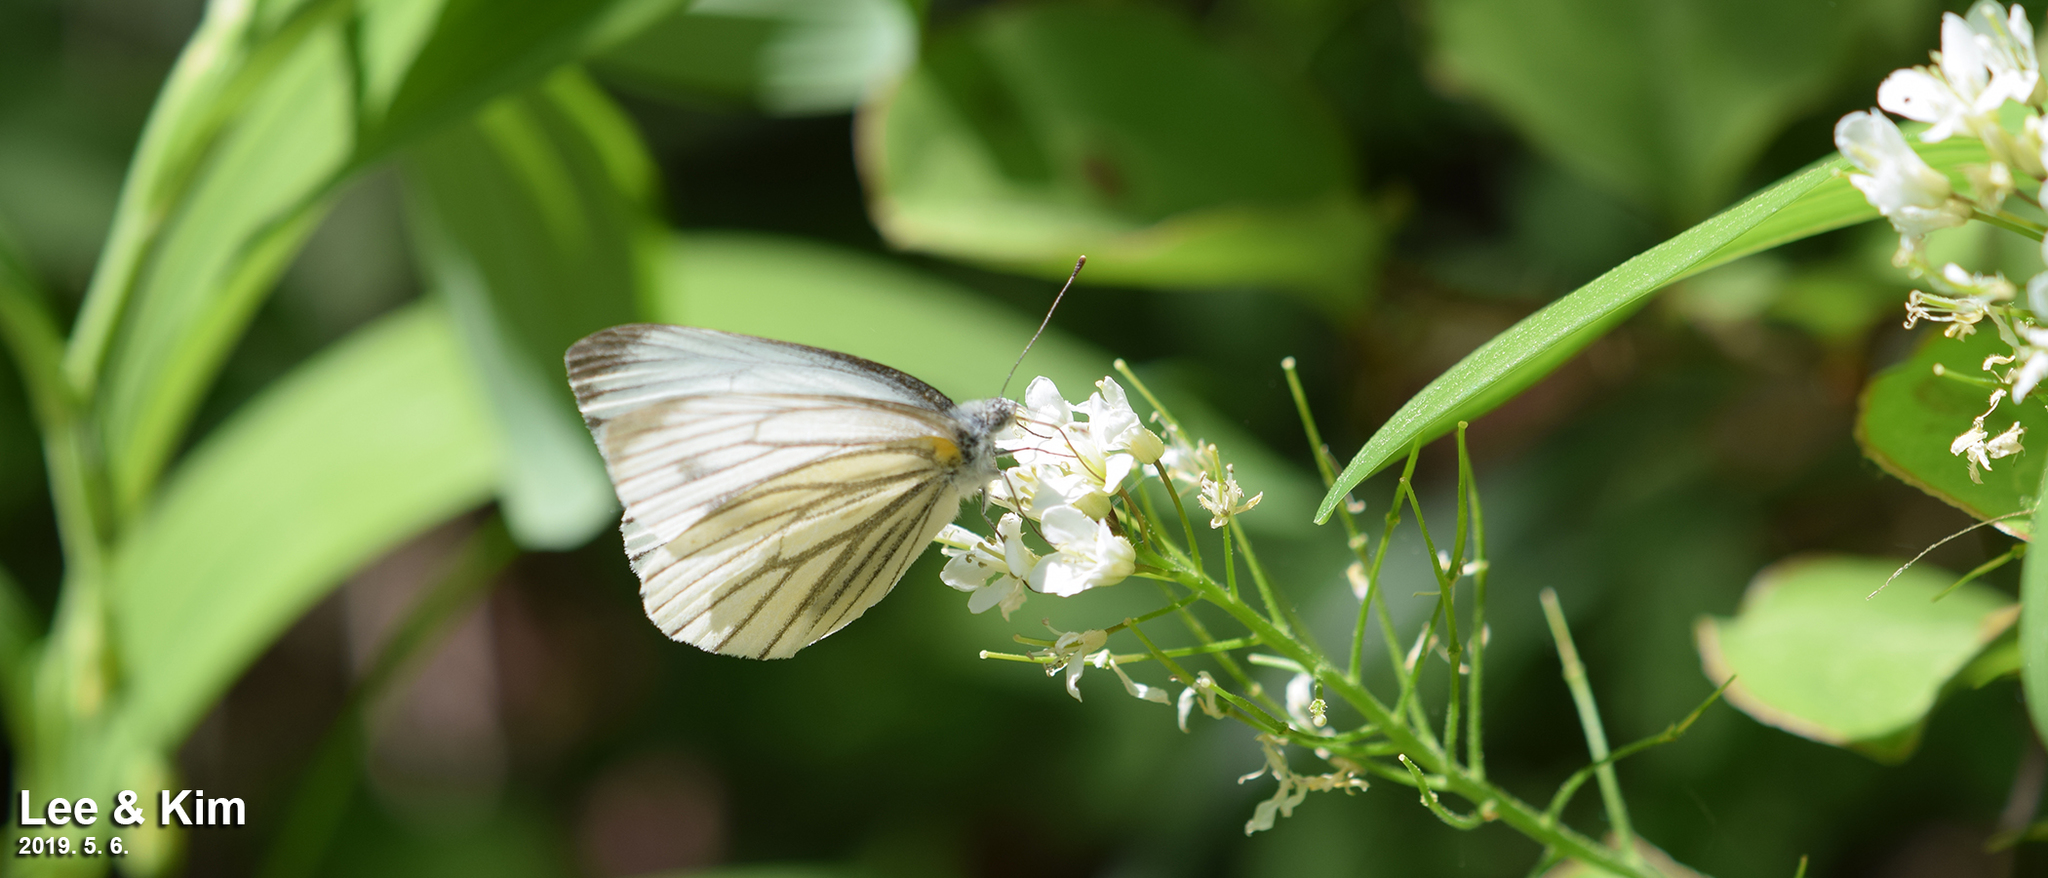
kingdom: Animalia
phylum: Arthropoda
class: Insecta
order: Lepidoptera
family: Pieridae
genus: Pieris
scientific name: Pieris melete
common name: Asian green-veined white
